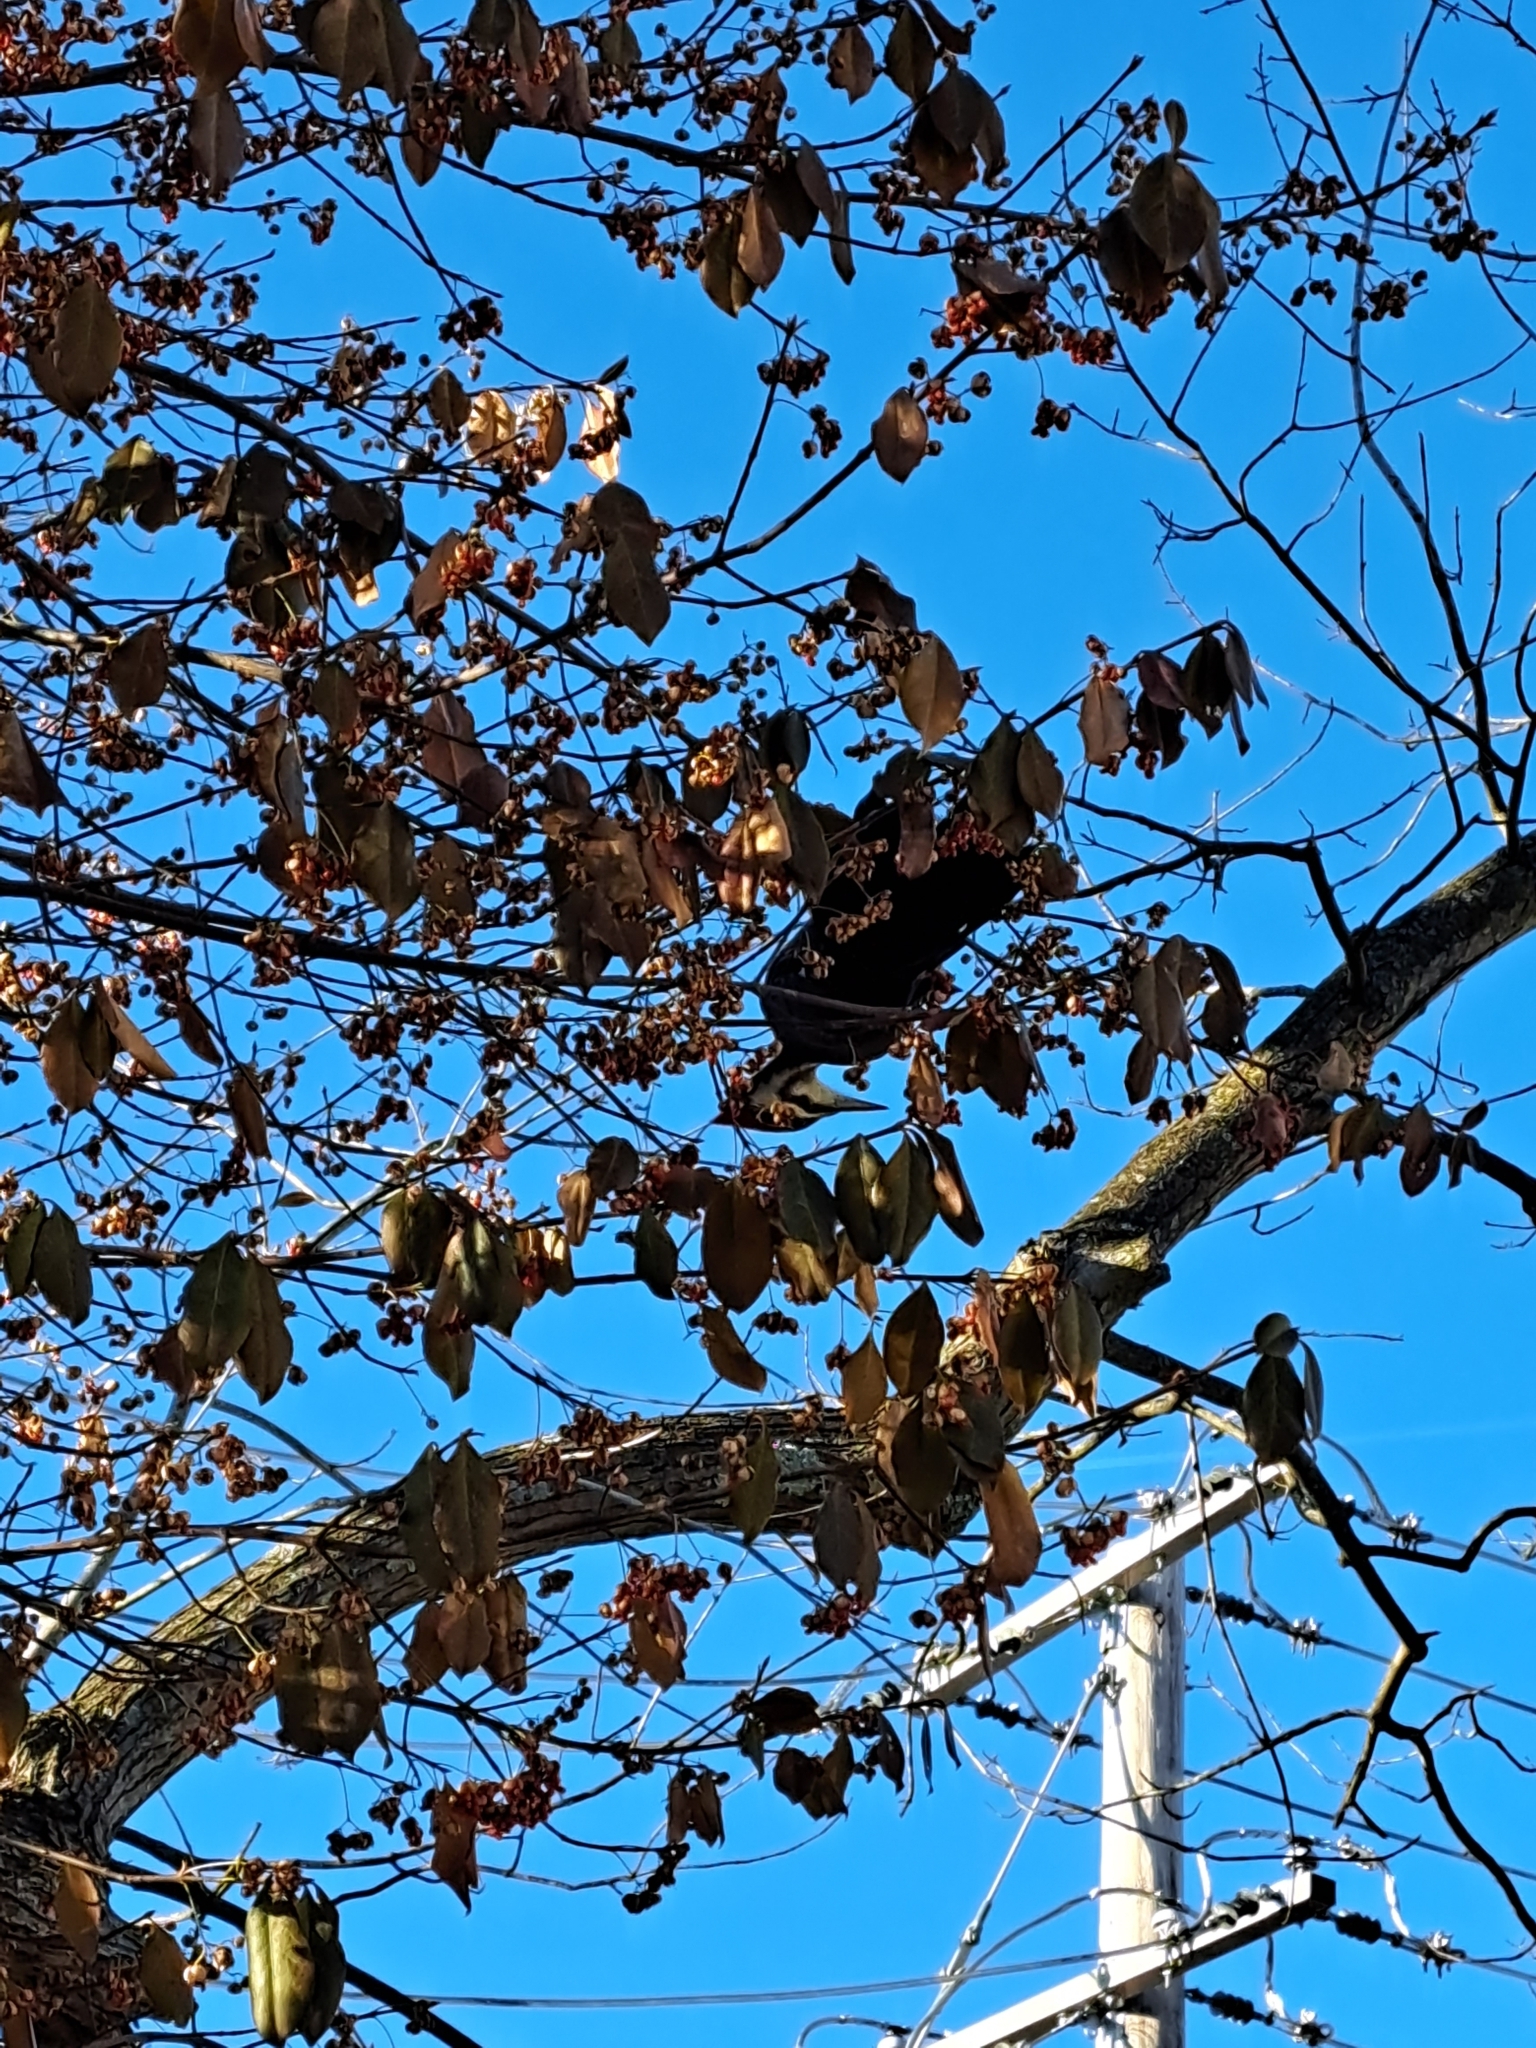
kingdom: Animalia
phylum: Chordata
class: Aves
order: Piciformes
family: Picidae
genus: Dryocopus
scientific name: Dryocopus pileatus
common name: Pileated woodpecker
